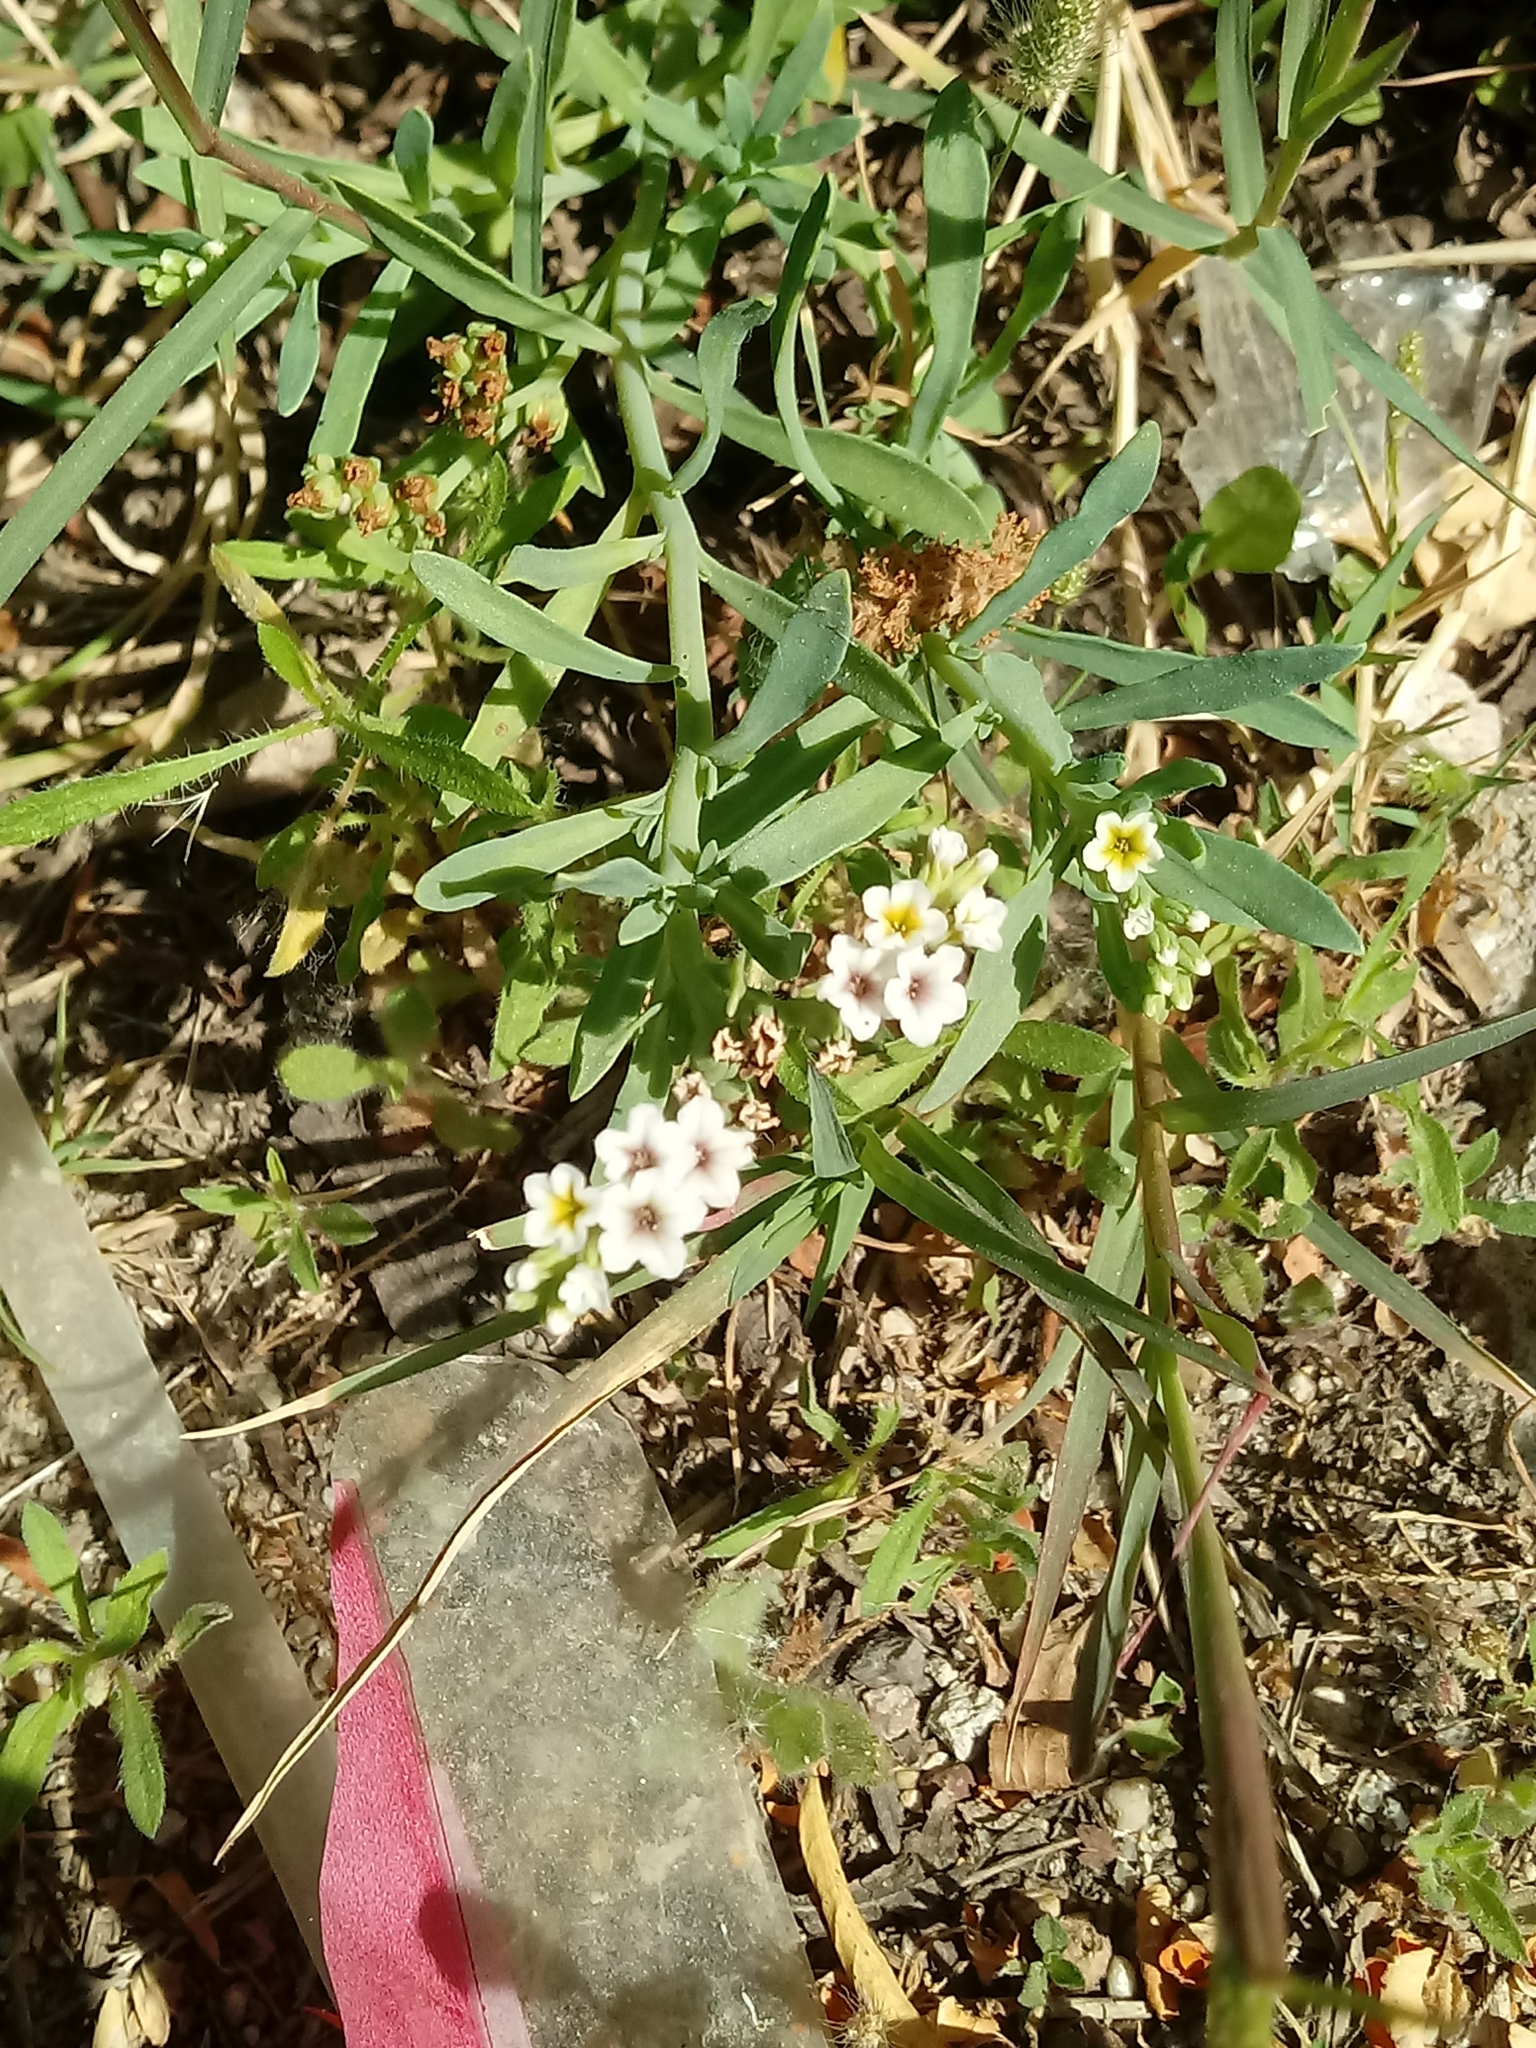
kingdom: Plantae
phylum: Tracheophyta
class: Magnoliopsida
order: Boraginales
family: Heliotropiaceae
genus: Heliotropium
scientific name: Heliotropium curassavicum
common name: Seaside heliotrope
